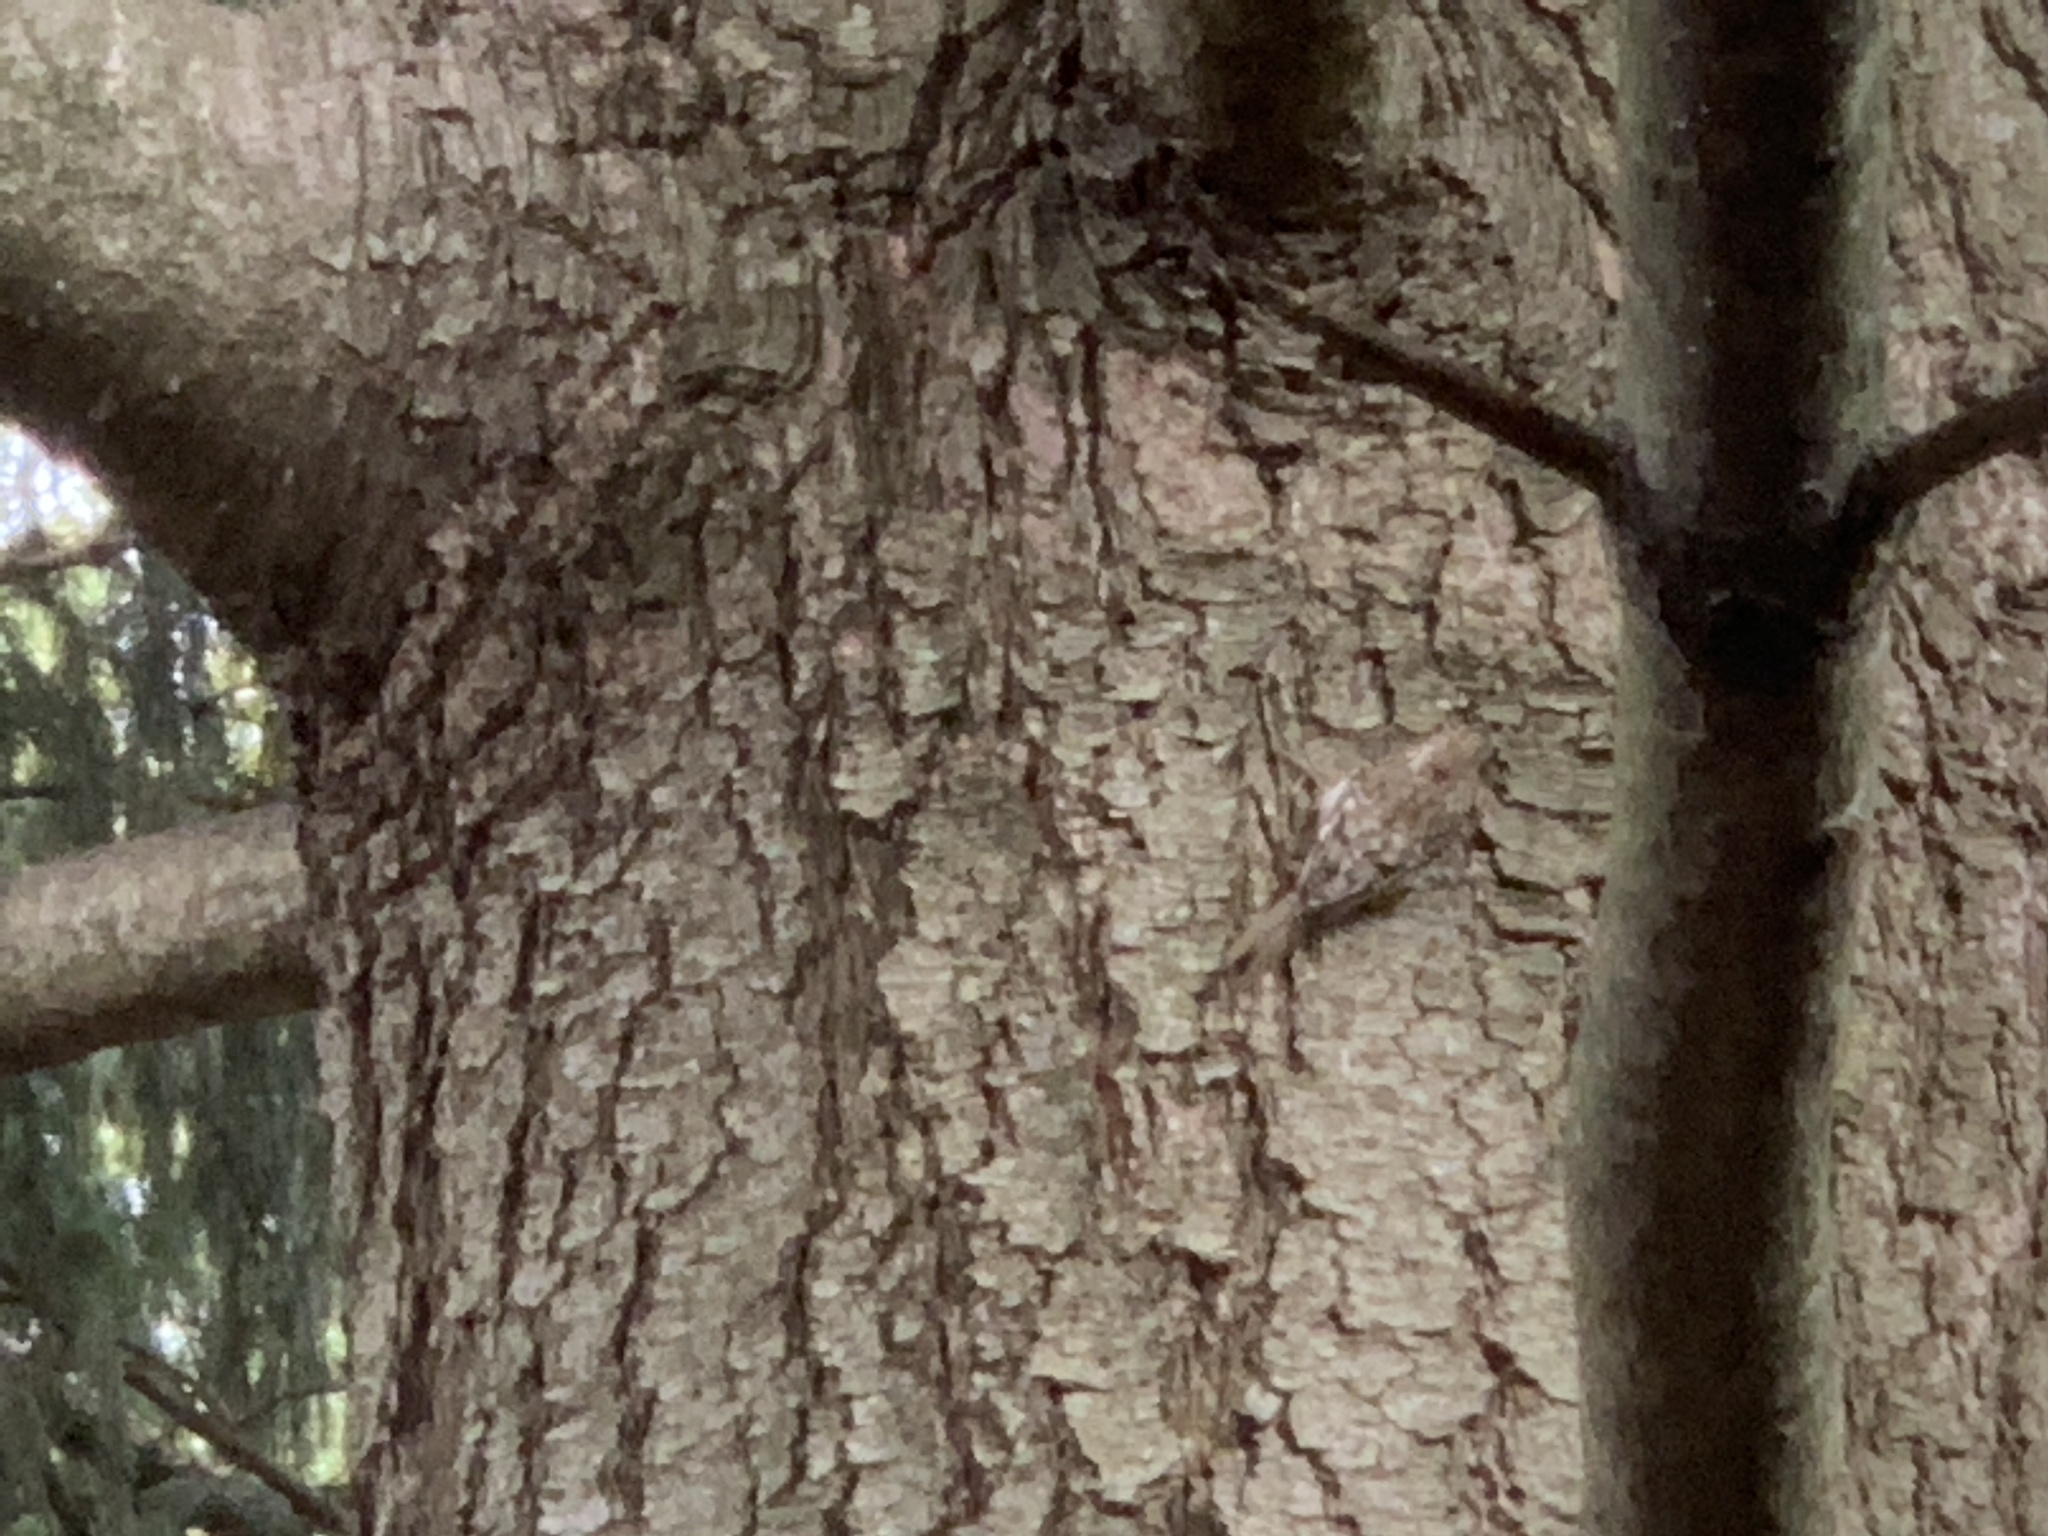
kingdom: Animalia
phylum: Chordata
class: Aves
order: Passeriformes
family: Certhiidae
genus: Certhia
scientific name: Certhia americana
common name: Brown creeper
